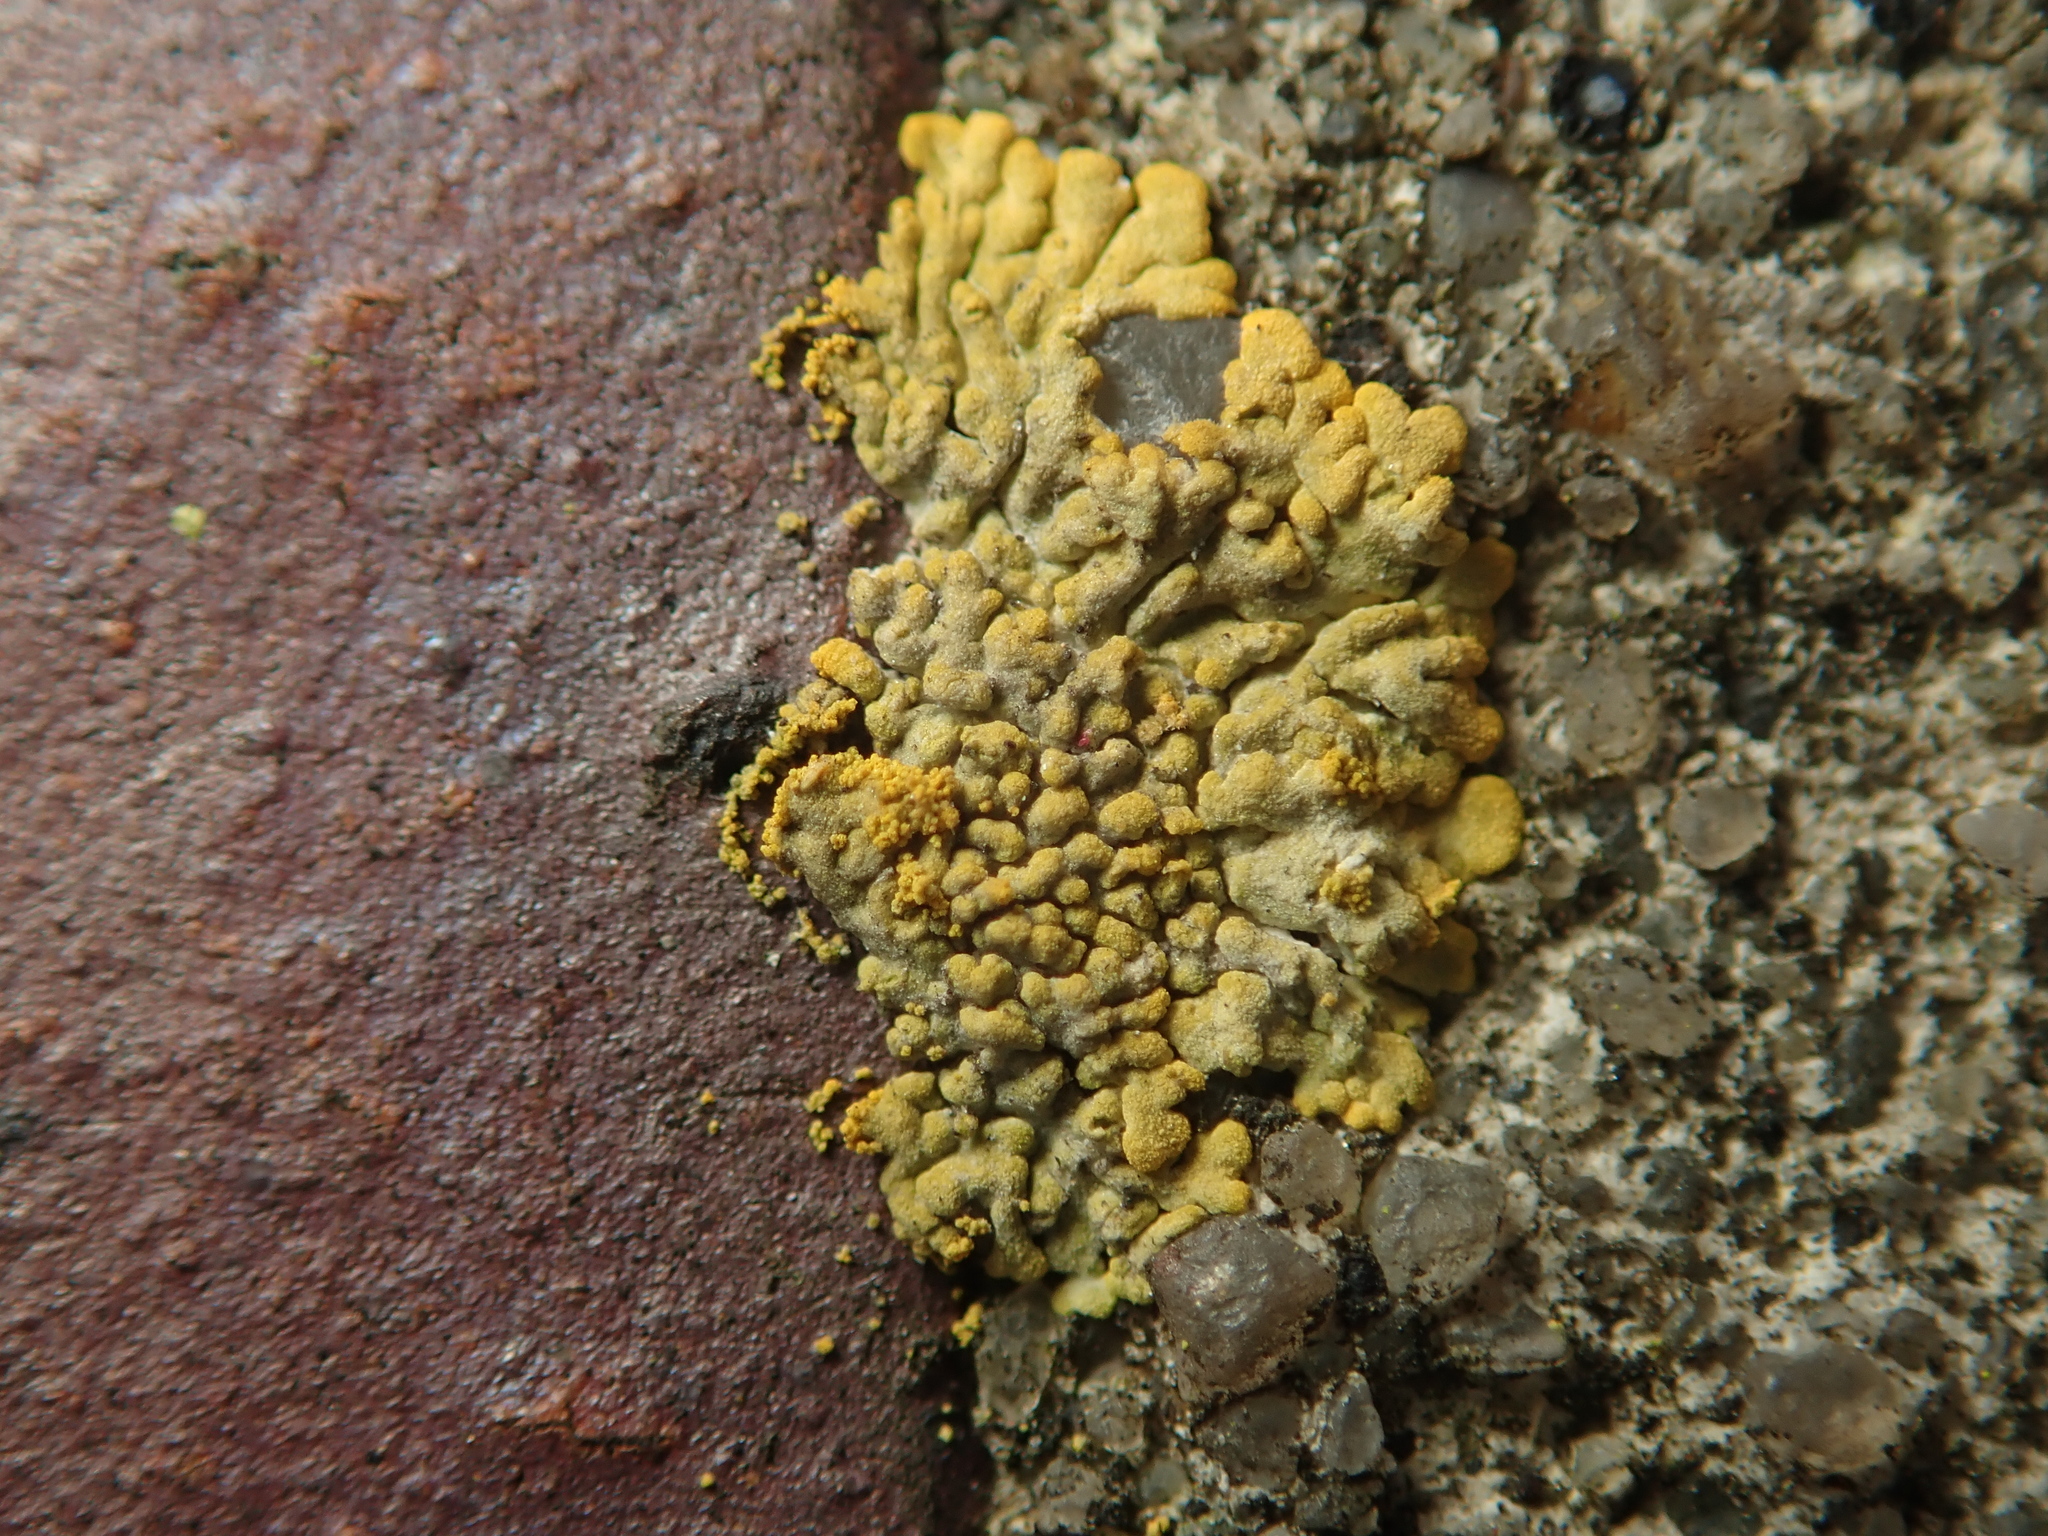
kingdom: Fungi
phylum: Ascomycota
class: Lecanoromycetes
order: Teloschistales
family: Teloschistaceae
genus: Calogaya
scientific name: Calogaya decipiens
